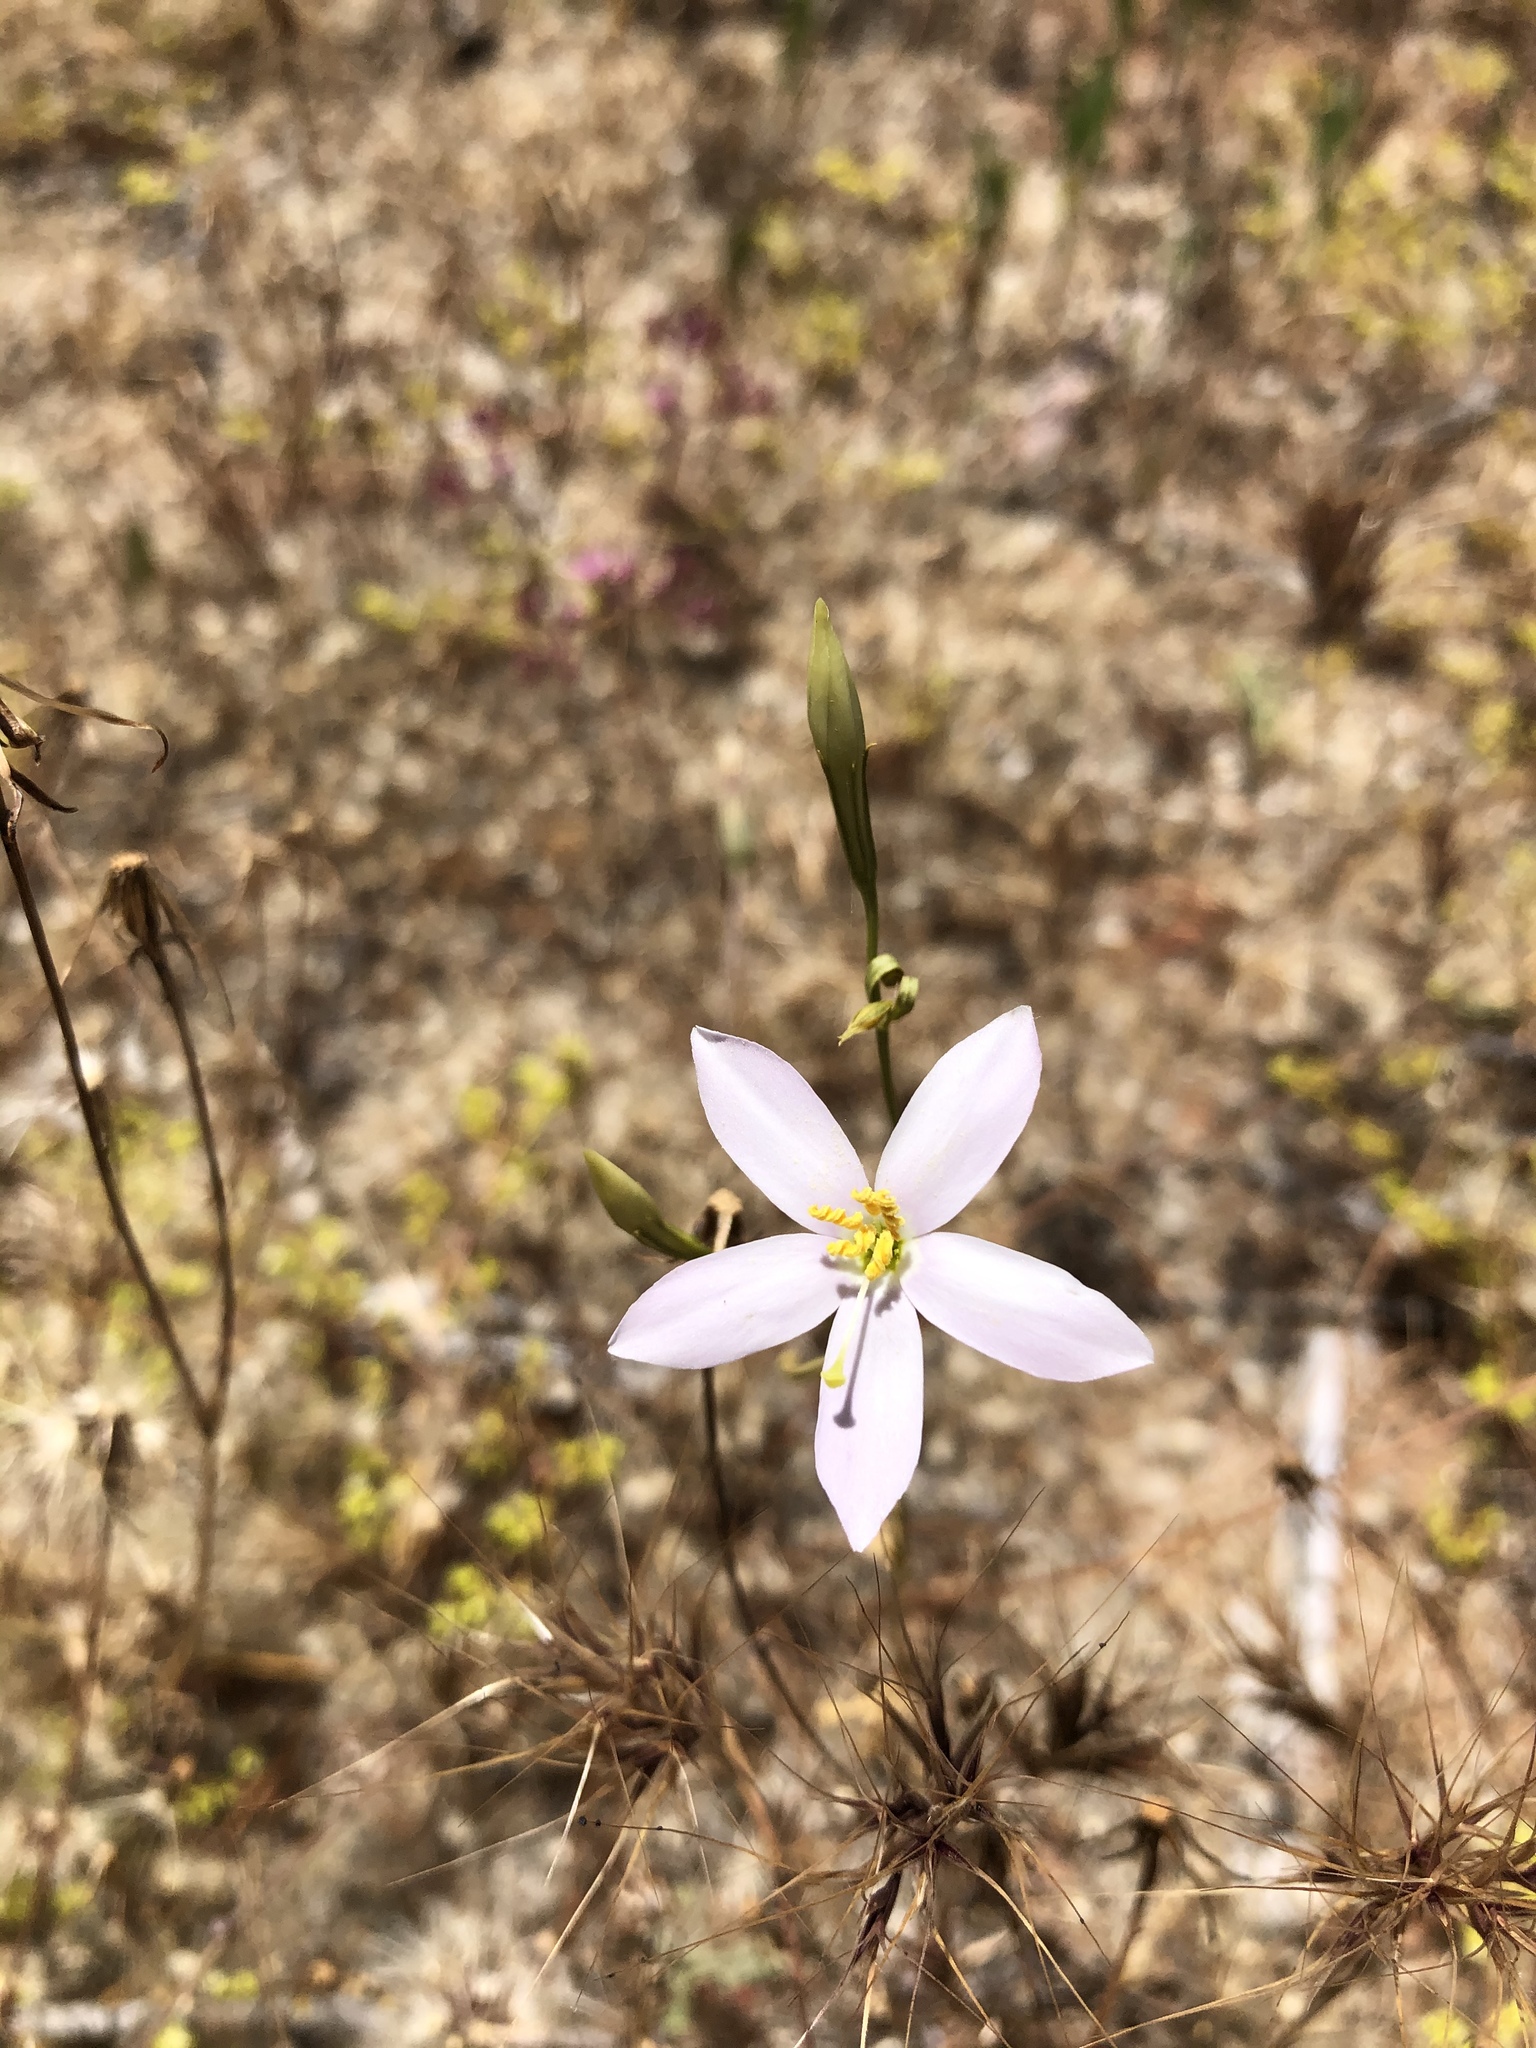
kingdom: Plantae
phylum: Tracheophyta
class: Magnoliopsida
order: Gentianales
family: Gentianaceae
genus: Zeltnera
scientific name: Zeltnera venusta
